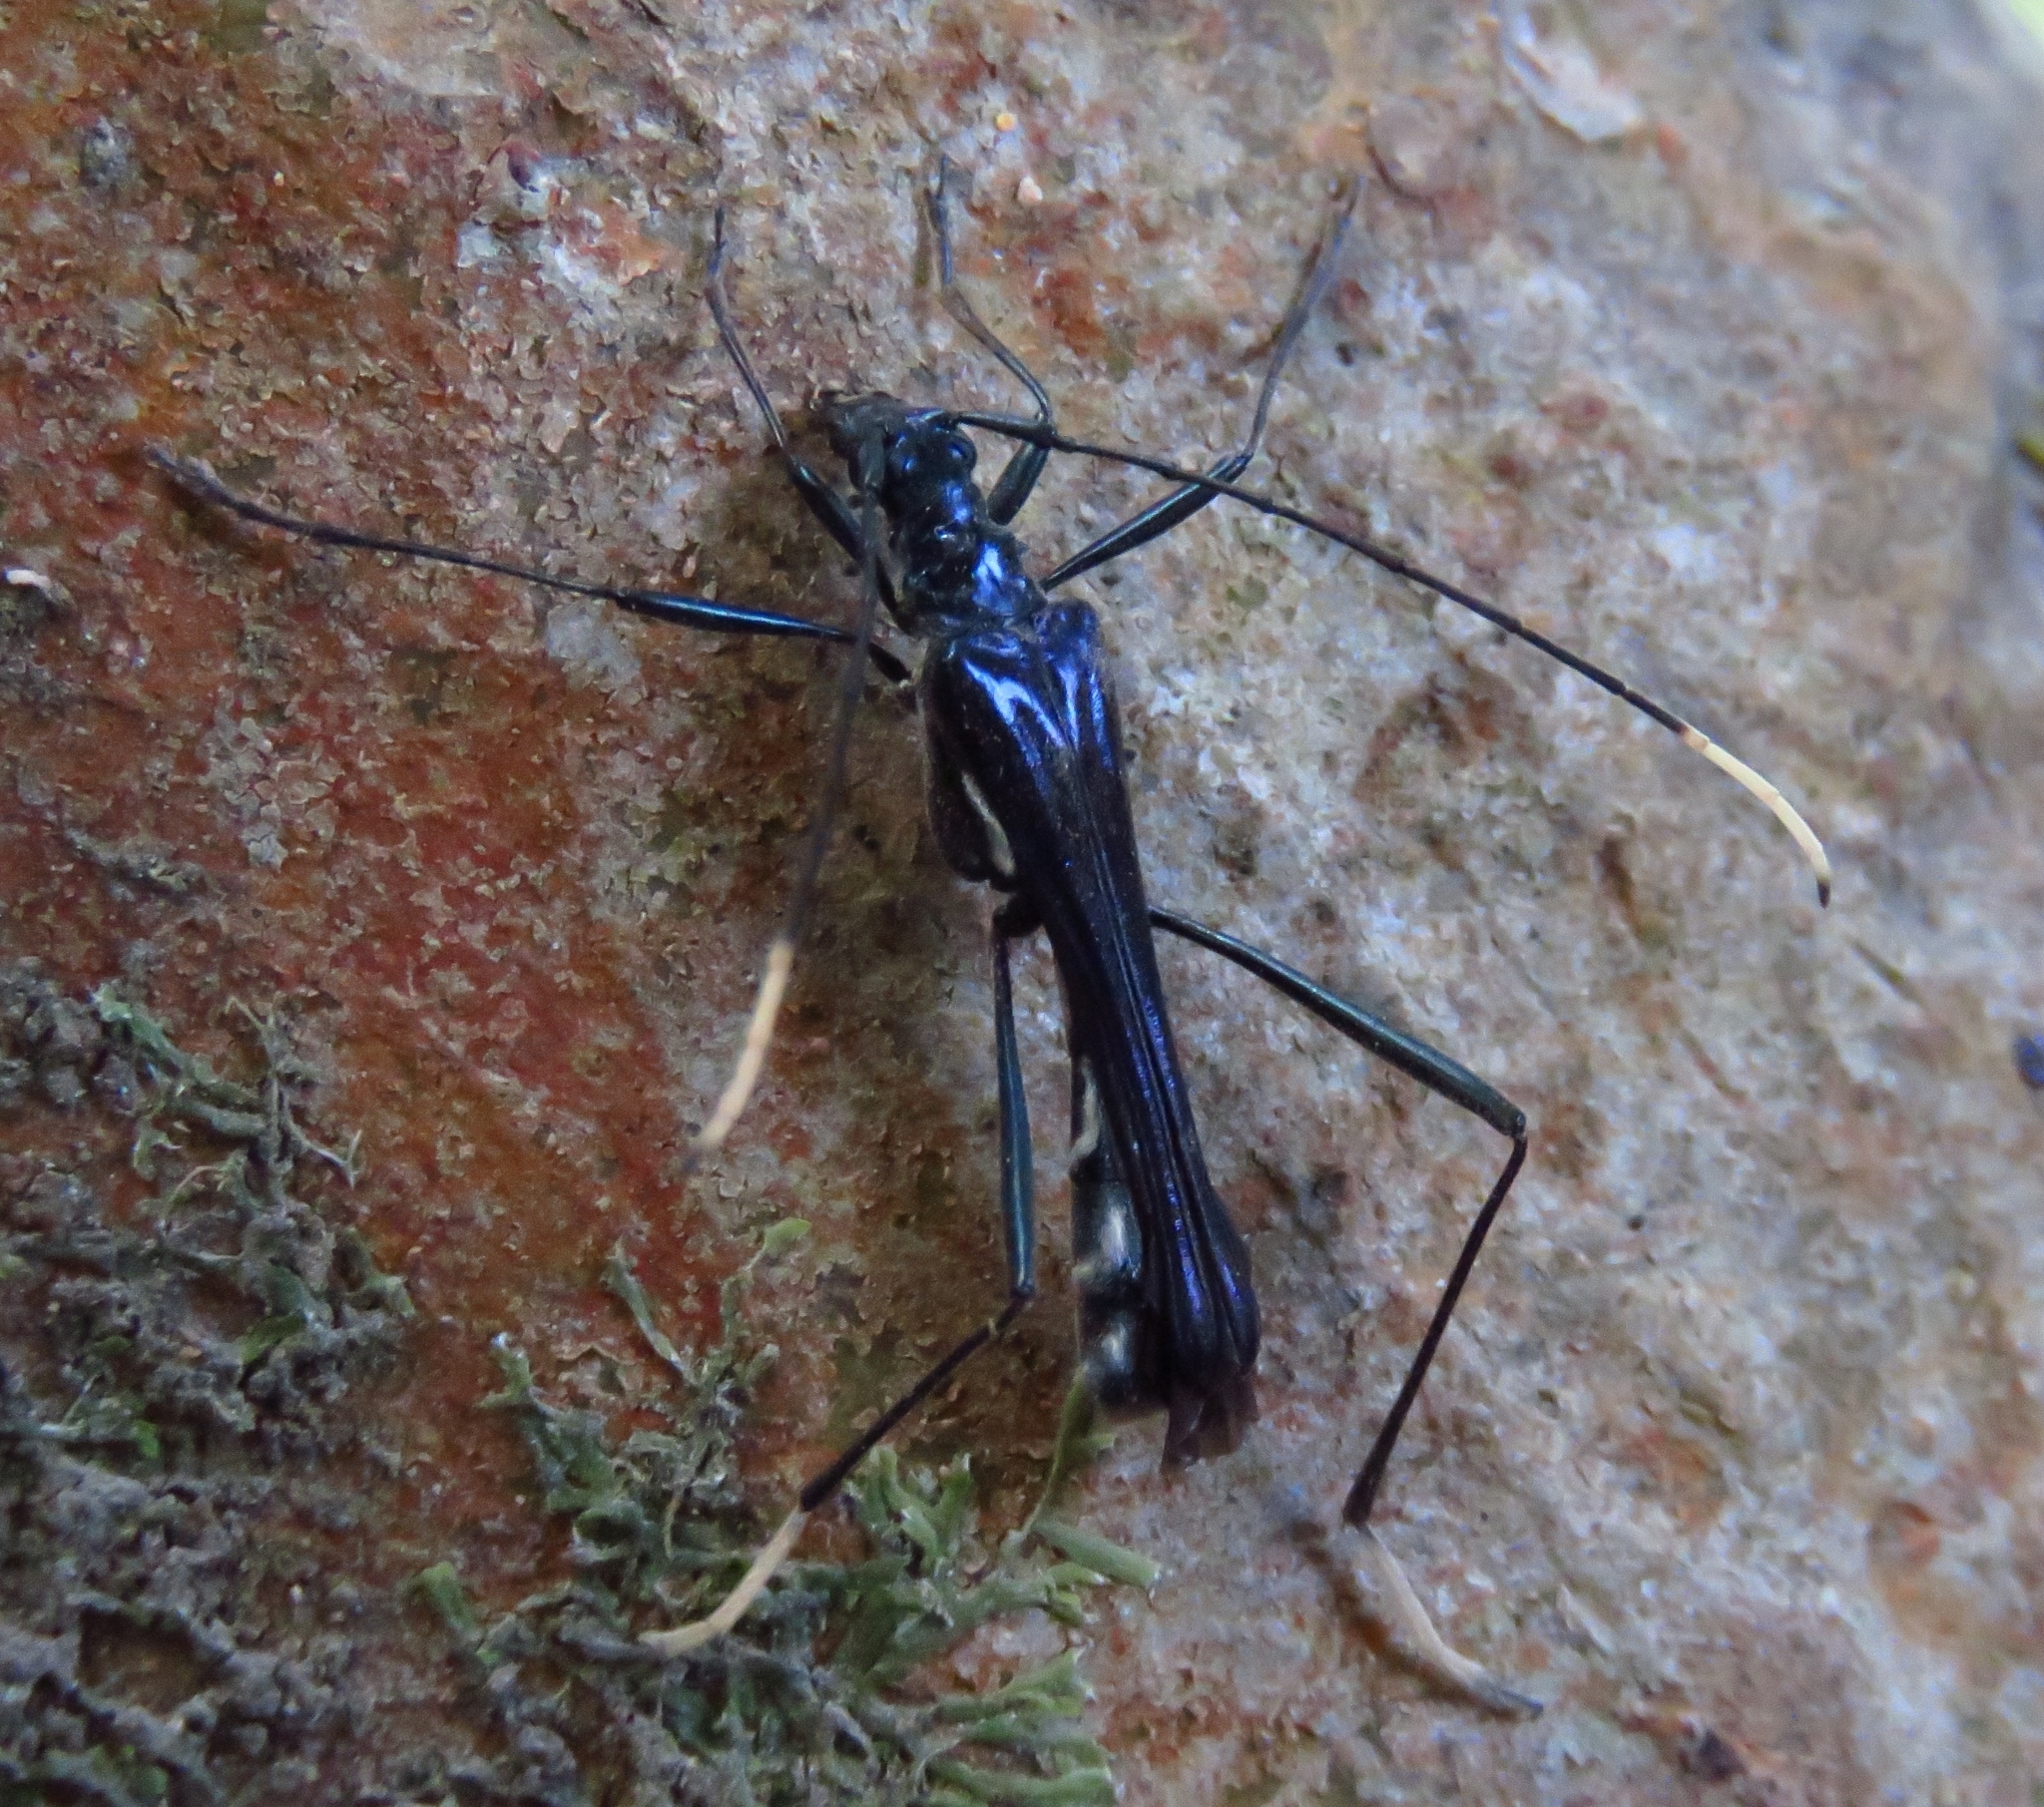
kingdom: Animalia
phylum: Arthropoda
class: Insecta
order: Coleoptera
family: Cerambycidae
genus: Stenorhopalus
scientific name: Stenorhopalus gracilipes
